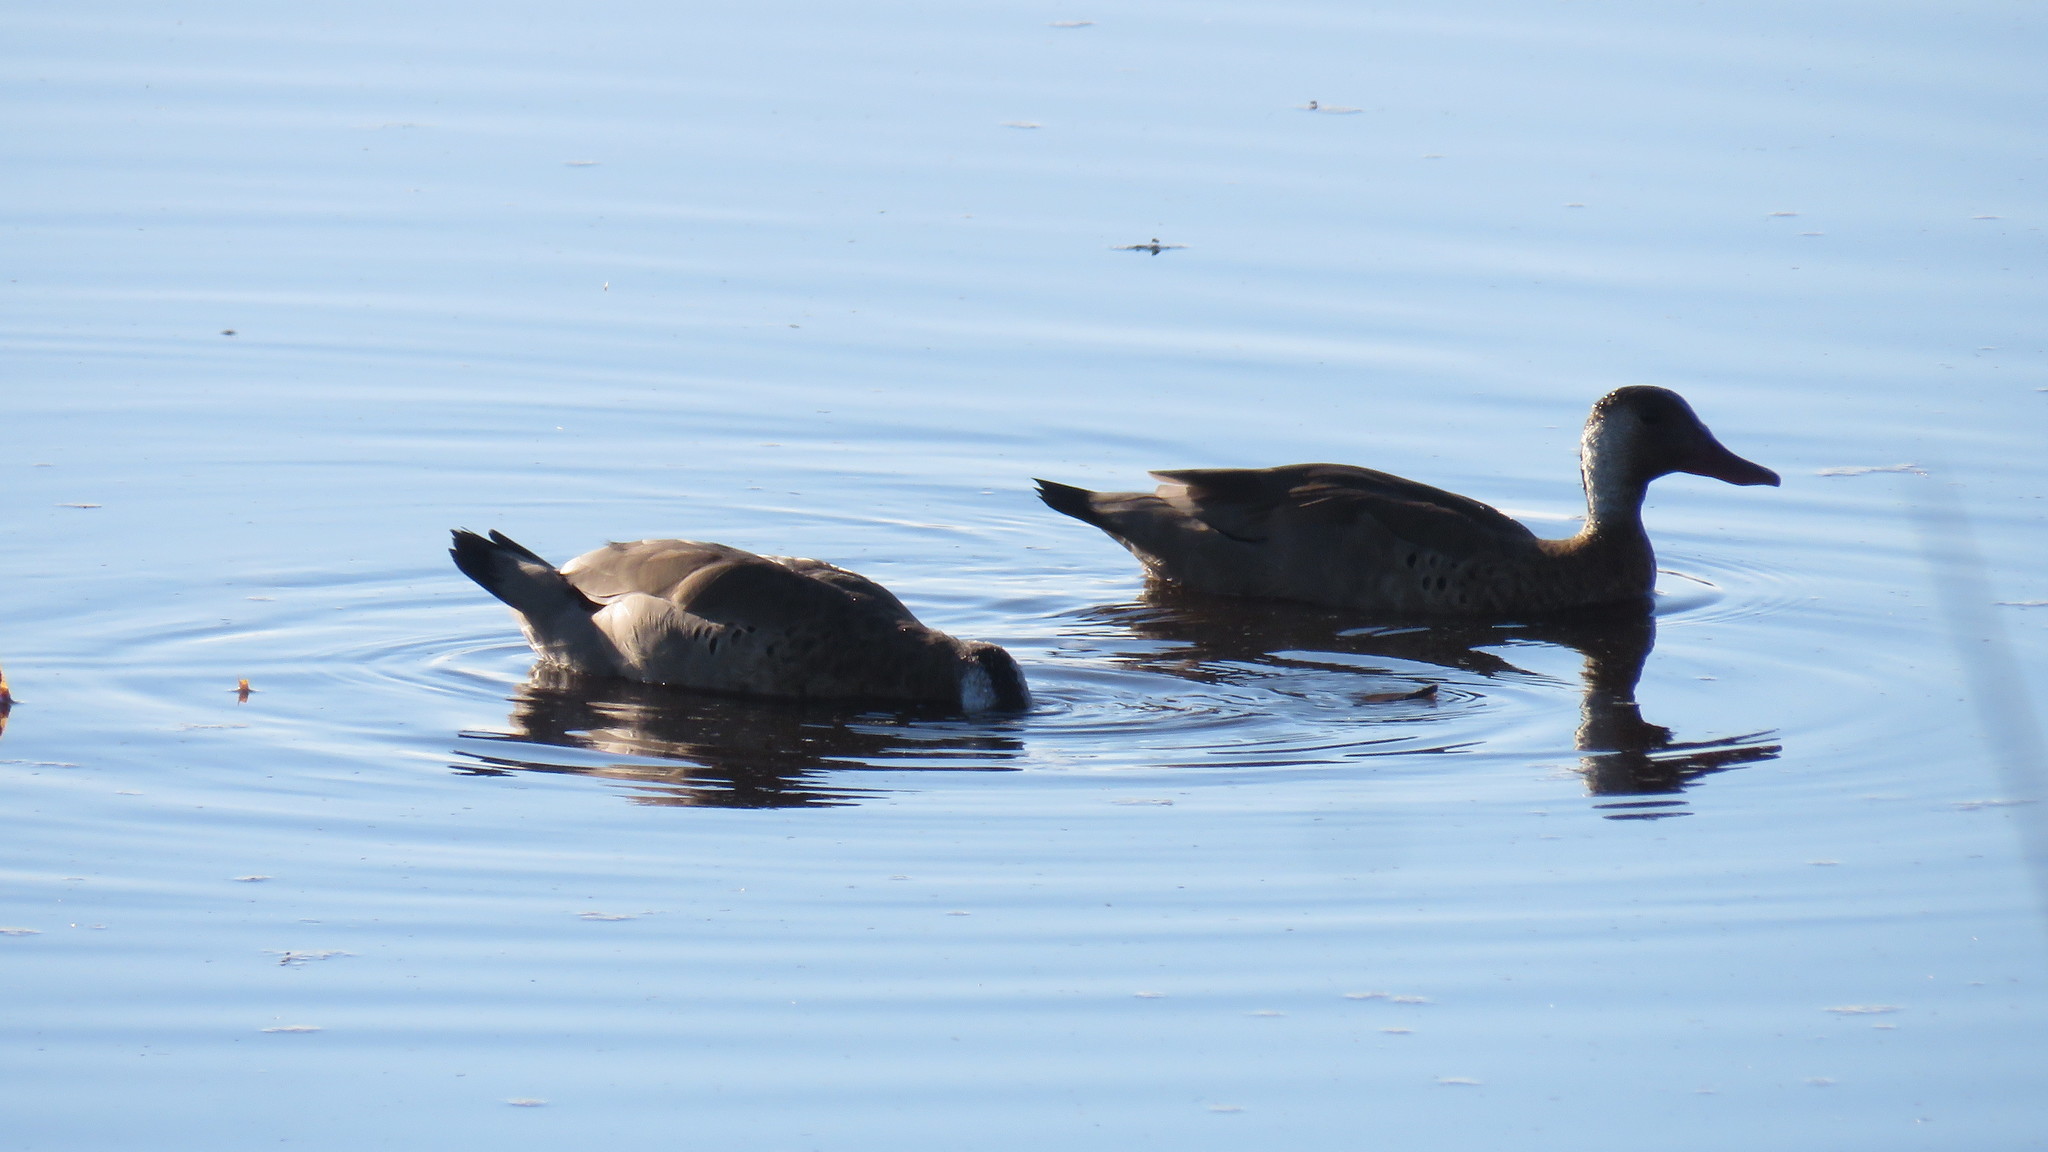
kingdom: Animalia
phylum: Chordata
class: Aves
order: Anseriformes
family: Anatidae
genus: Amazonetta
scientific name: Amazonetta brasiliensis
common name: Brazilian teal
